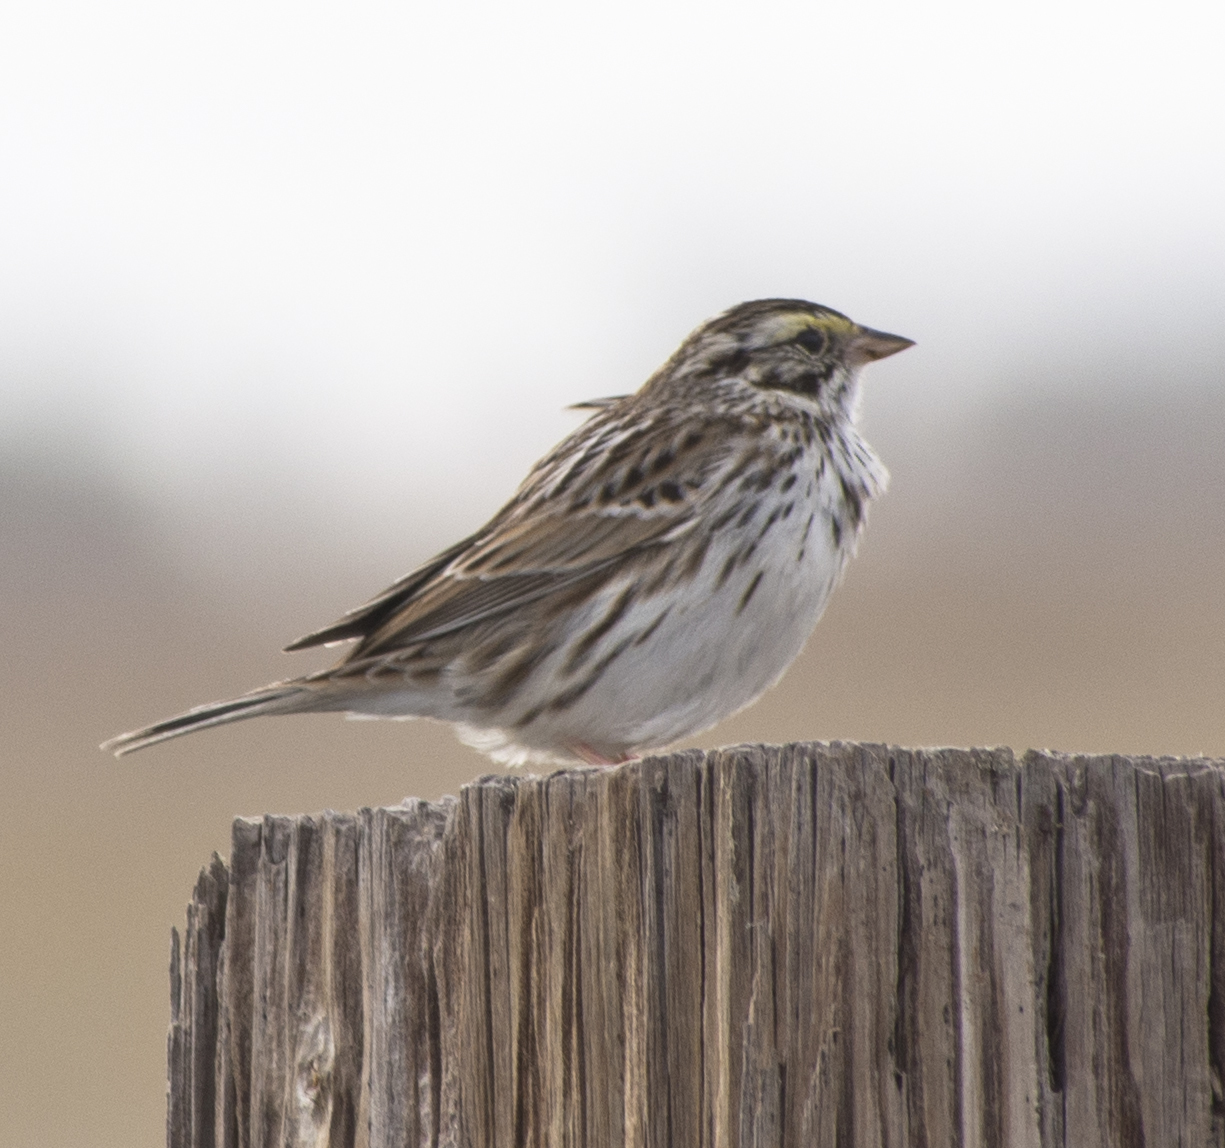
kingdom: Animalia
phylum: Chordata
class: Aves
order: Passeriformes
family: Passerellidae
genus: Passerculus
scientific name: Passerculus sandwichensis
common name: Savannah sparrow
